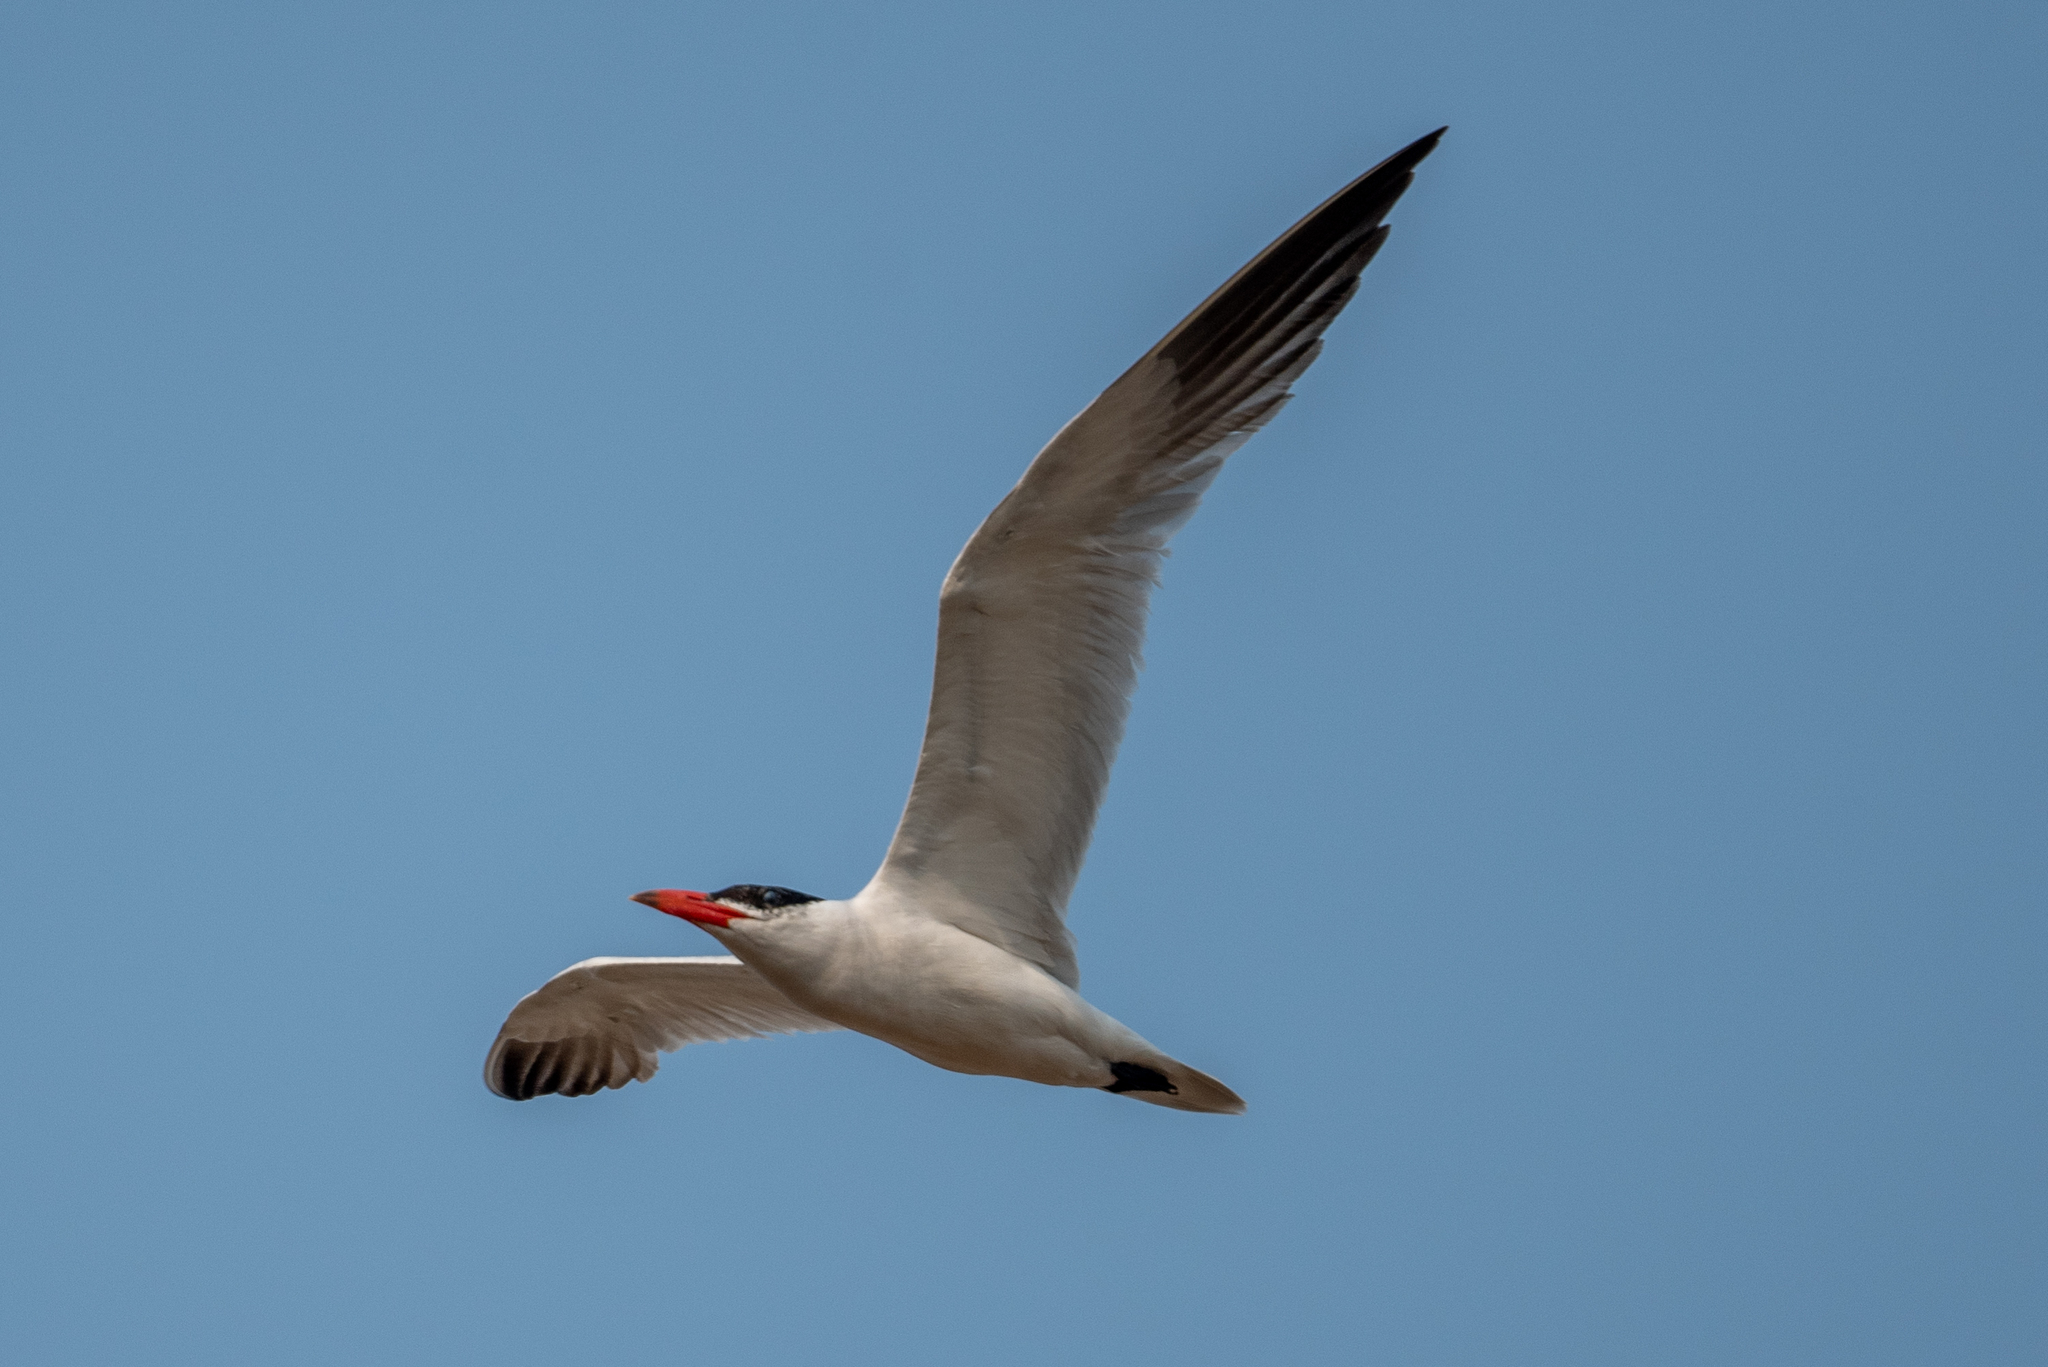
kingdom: Animalia
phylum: Chordata
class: Aves
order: Charadriiformes
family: Laridae
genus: Hydroprogne
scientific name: Hydroprogne caspia
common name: Caspian tern
